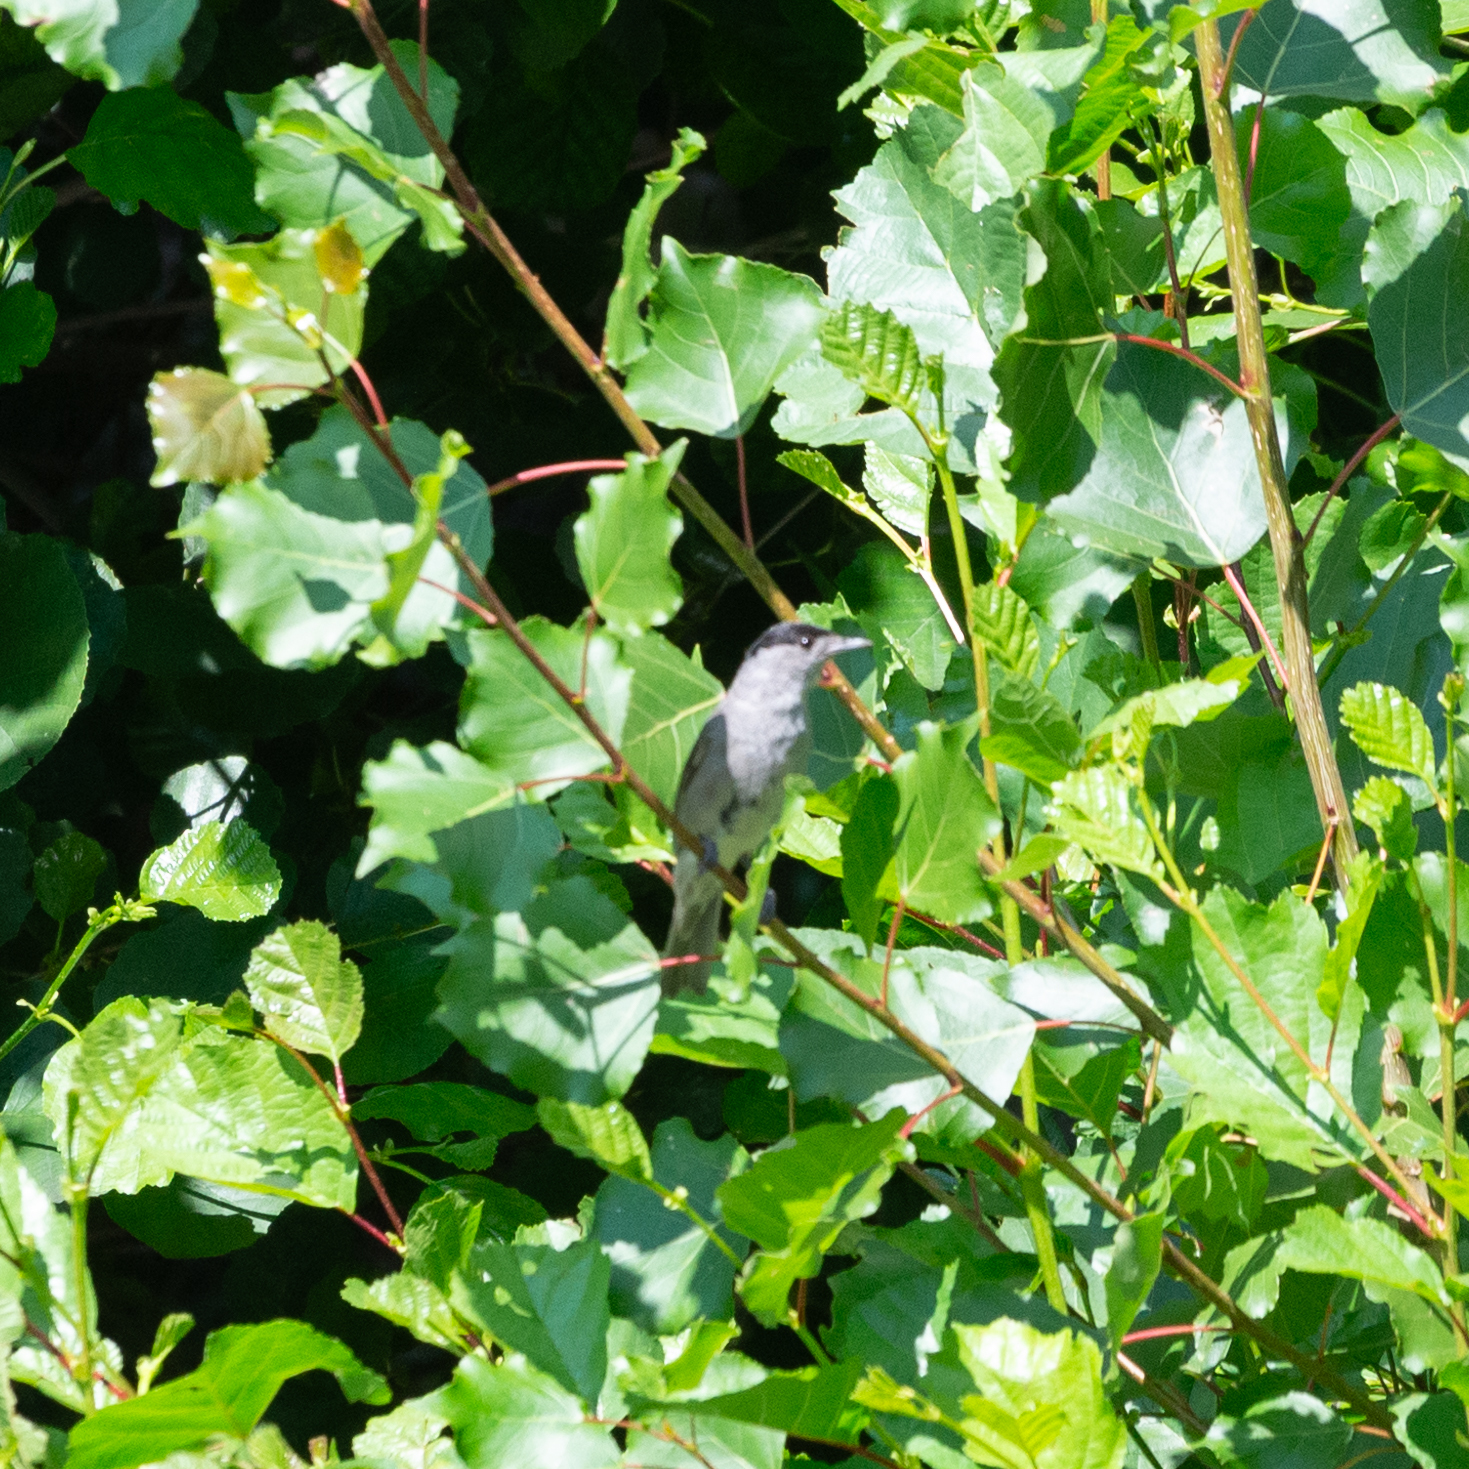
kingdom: Animalia
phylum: Chordata
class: Aves
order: Passeriformes
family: Sylviidae
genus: Sylvia
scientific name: Sylvia atricapilla
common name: Eurasian blackcap
